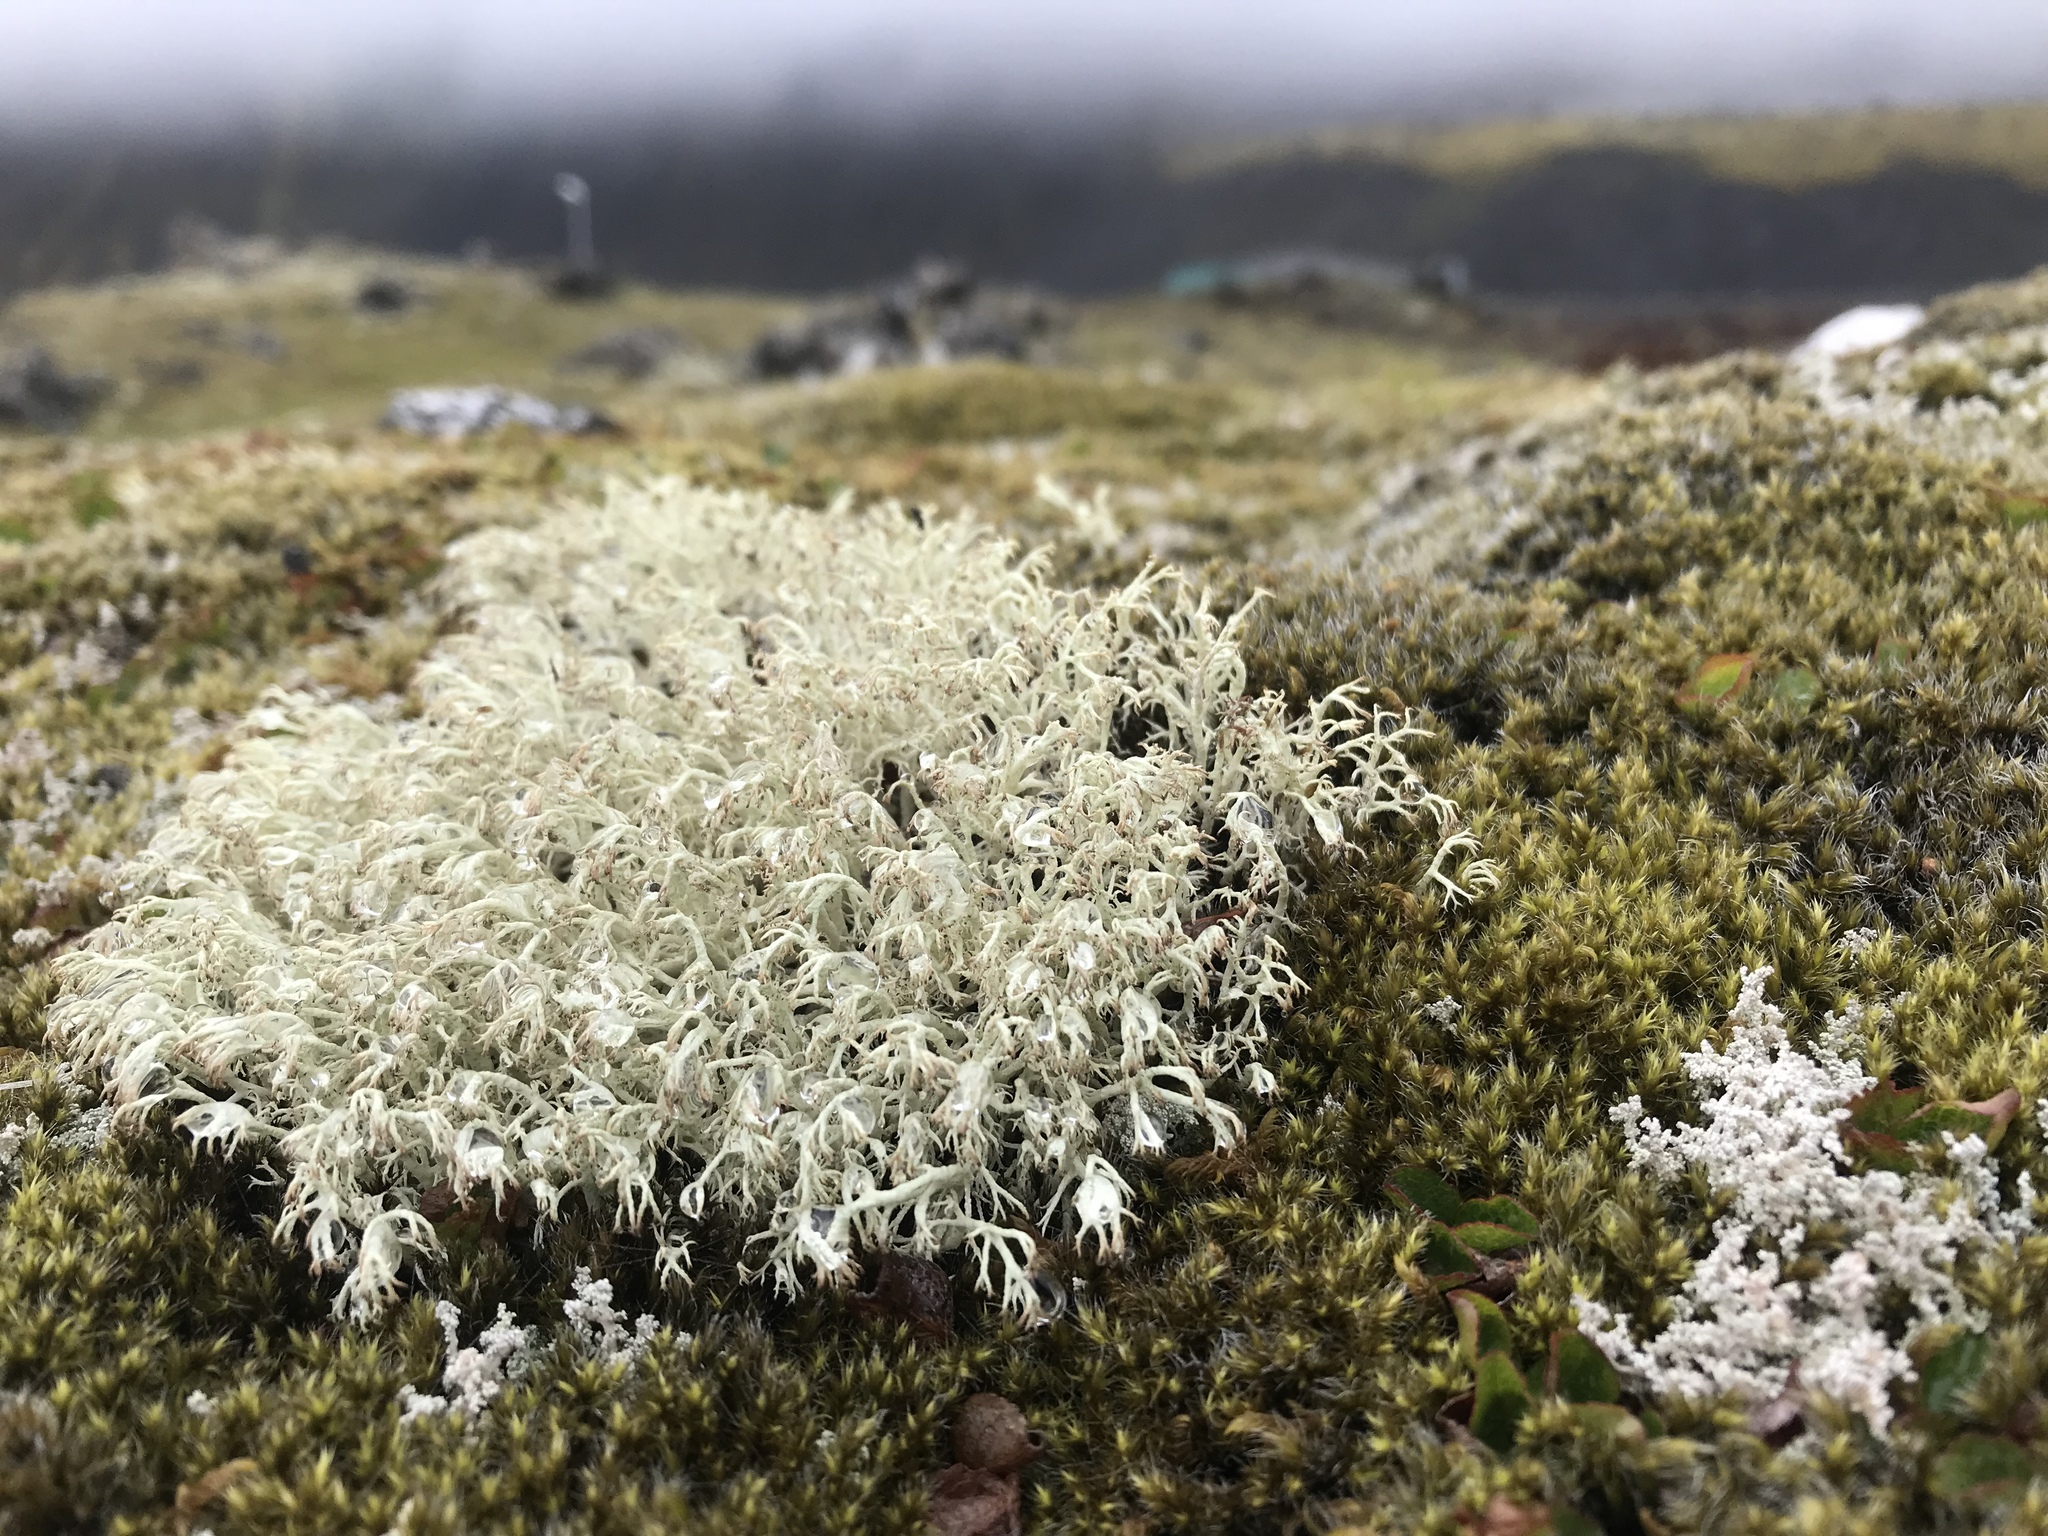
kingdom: Fungi
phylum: Ascomycota
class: Lecanoromycetes
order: Lecanorales
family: Cladoniaceae
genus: Cladonia
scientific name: Cladonia arbuscula
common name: Reindeer lichen
